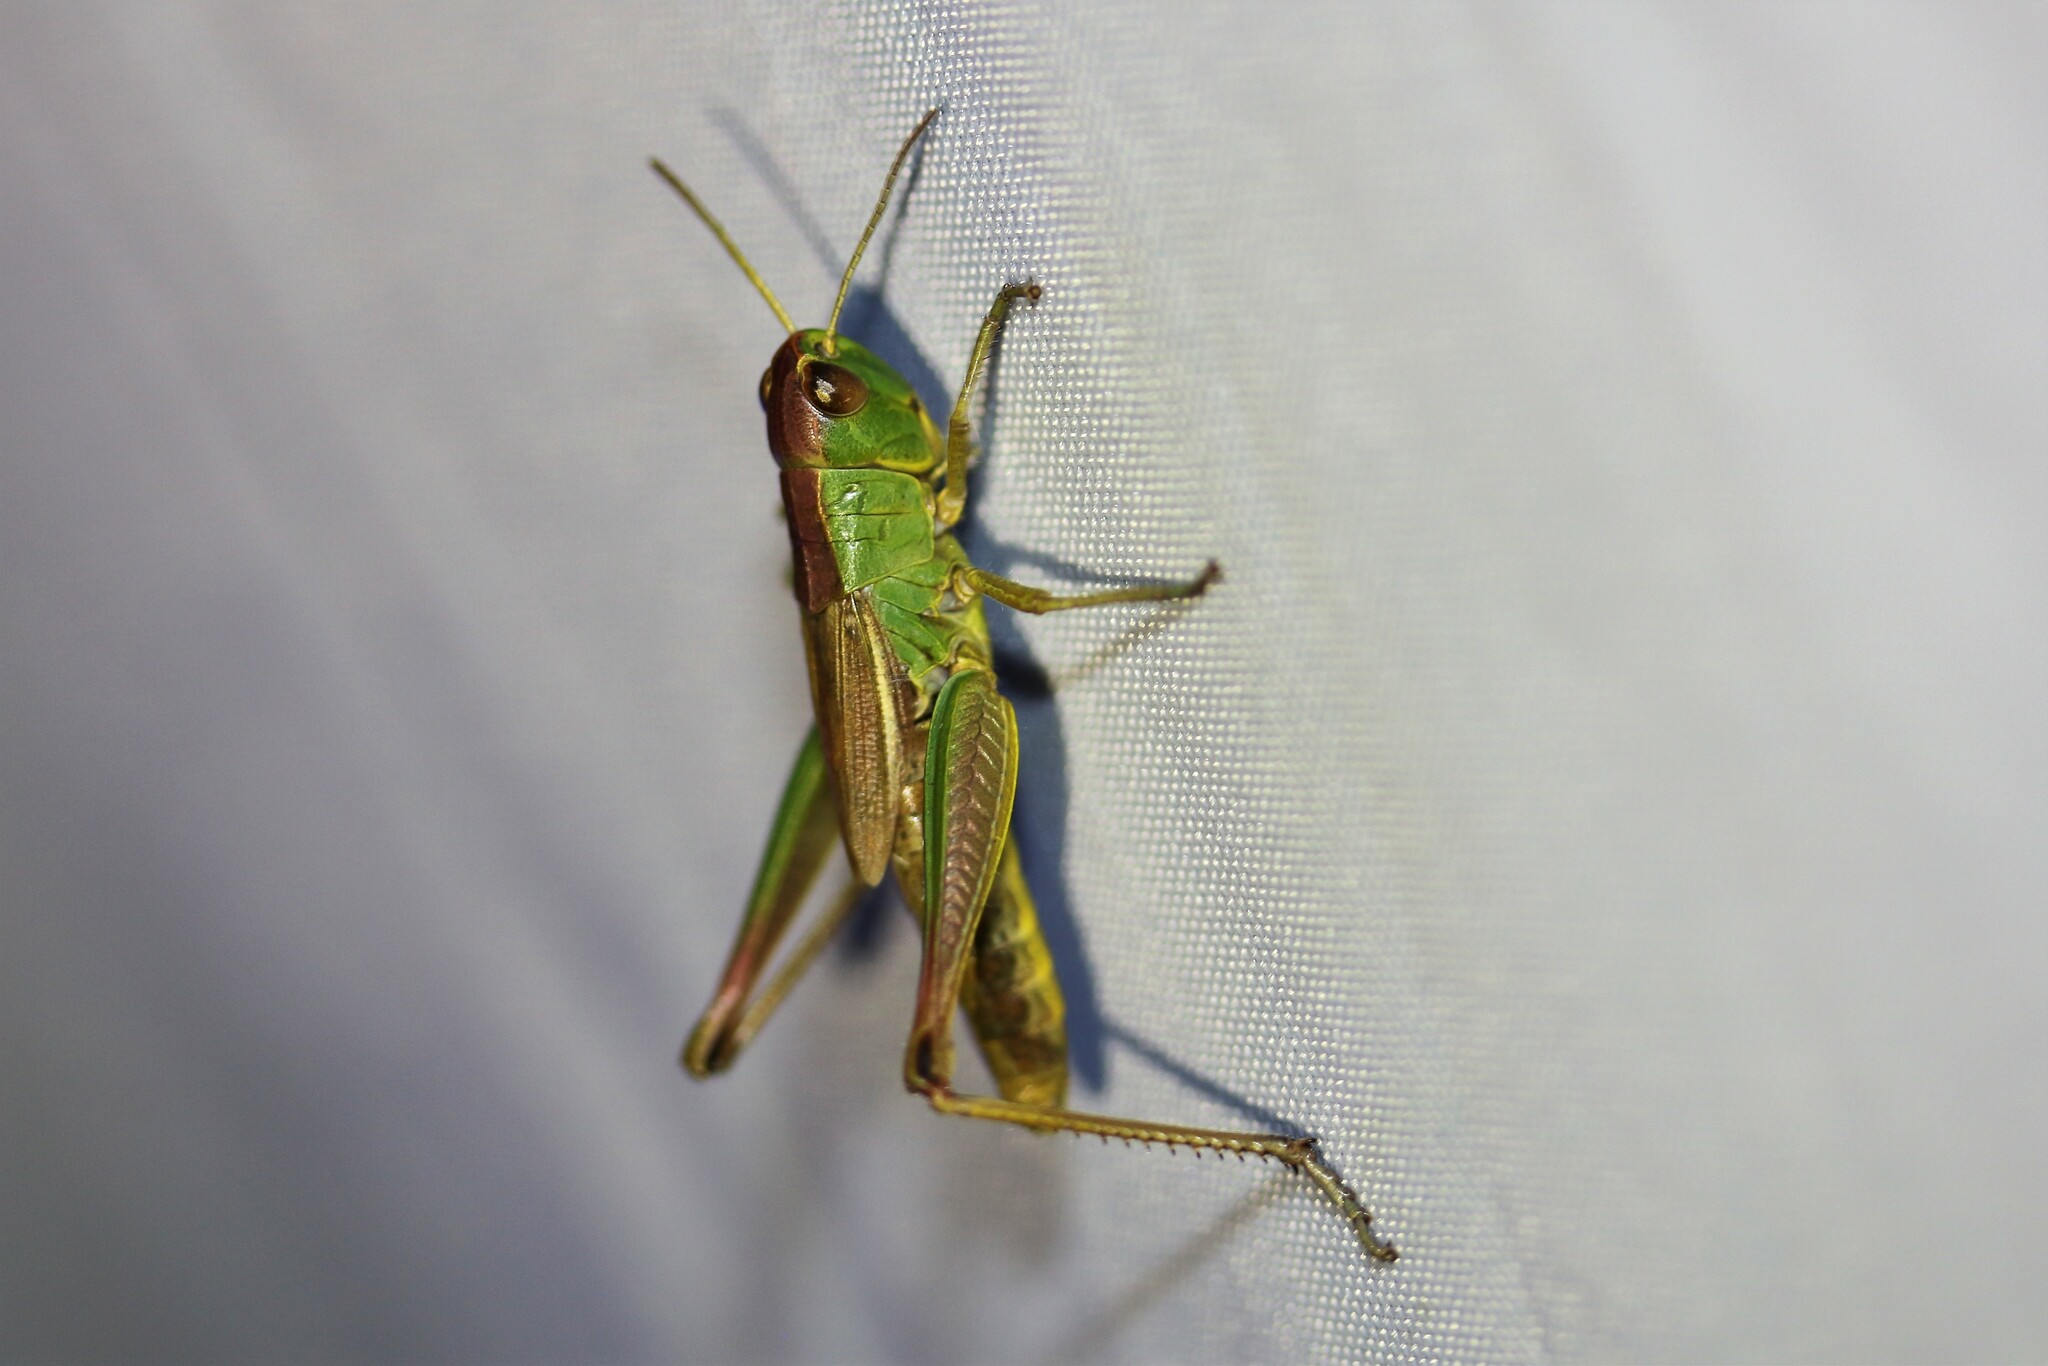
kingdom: Animalia
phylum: Arthropoda
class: Insecta
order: Orthoptera
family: Acrididae
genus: Pseudochorthippus
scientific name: Pseudochorthippus parallelus
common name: Meadow grasshopper
